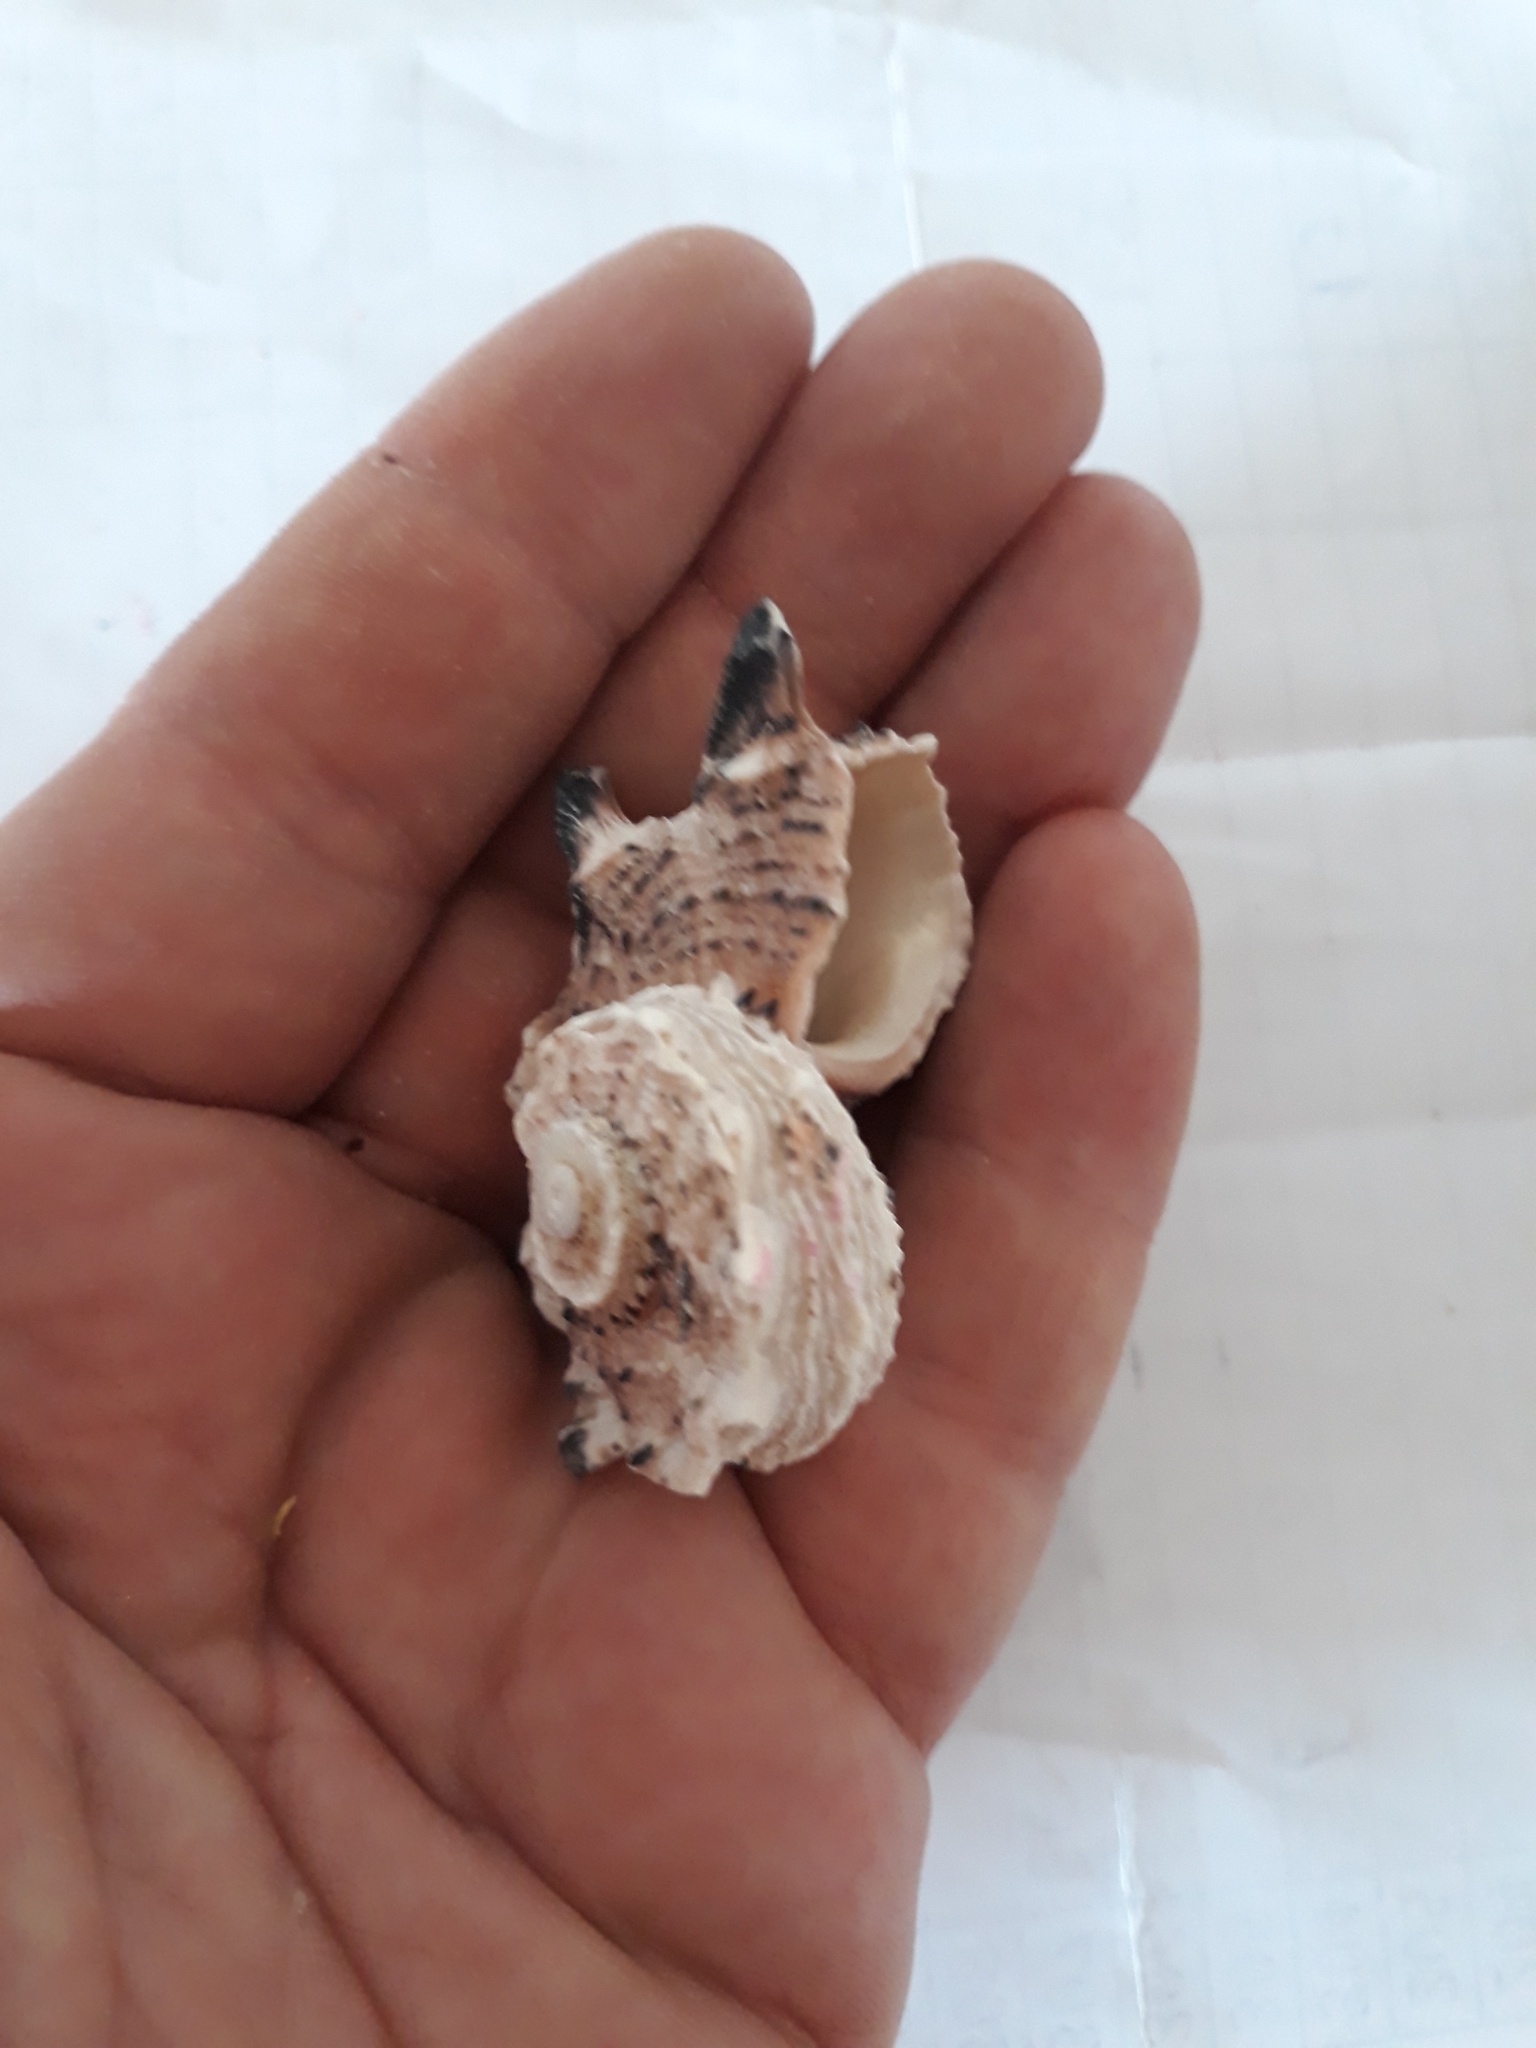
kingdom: Animalia
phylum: Mollusca
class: Gastropoda
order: Trochida
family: Angariidae
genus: Angaria
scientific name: Angaria delphinus
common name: Dolphin shell
